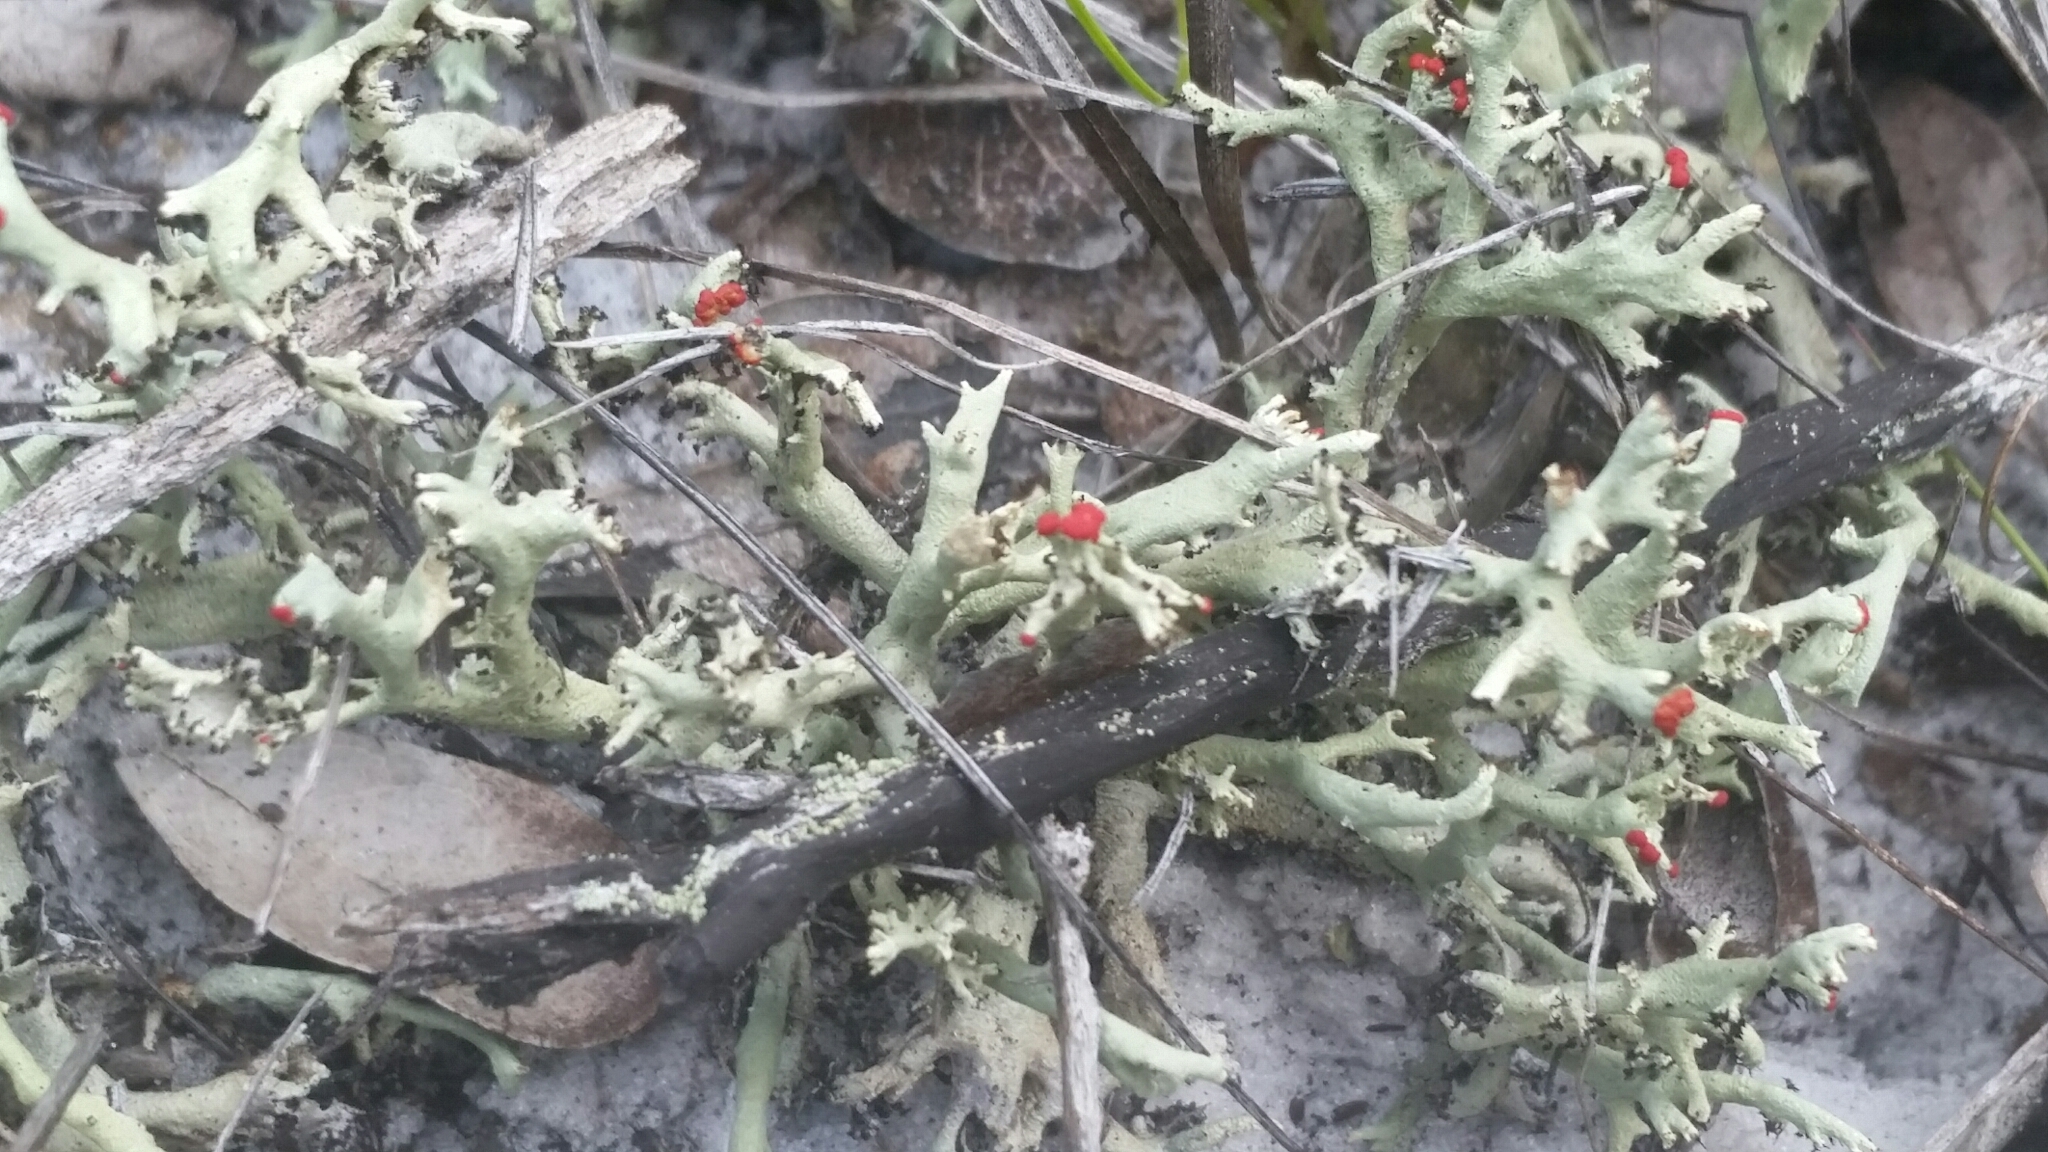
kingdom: Fungi
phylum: Ascomycota
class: Lecanoromycetes
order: Lecanorales
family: Cladoniaceae
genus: Cladonia
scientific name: Cladonia leporina
